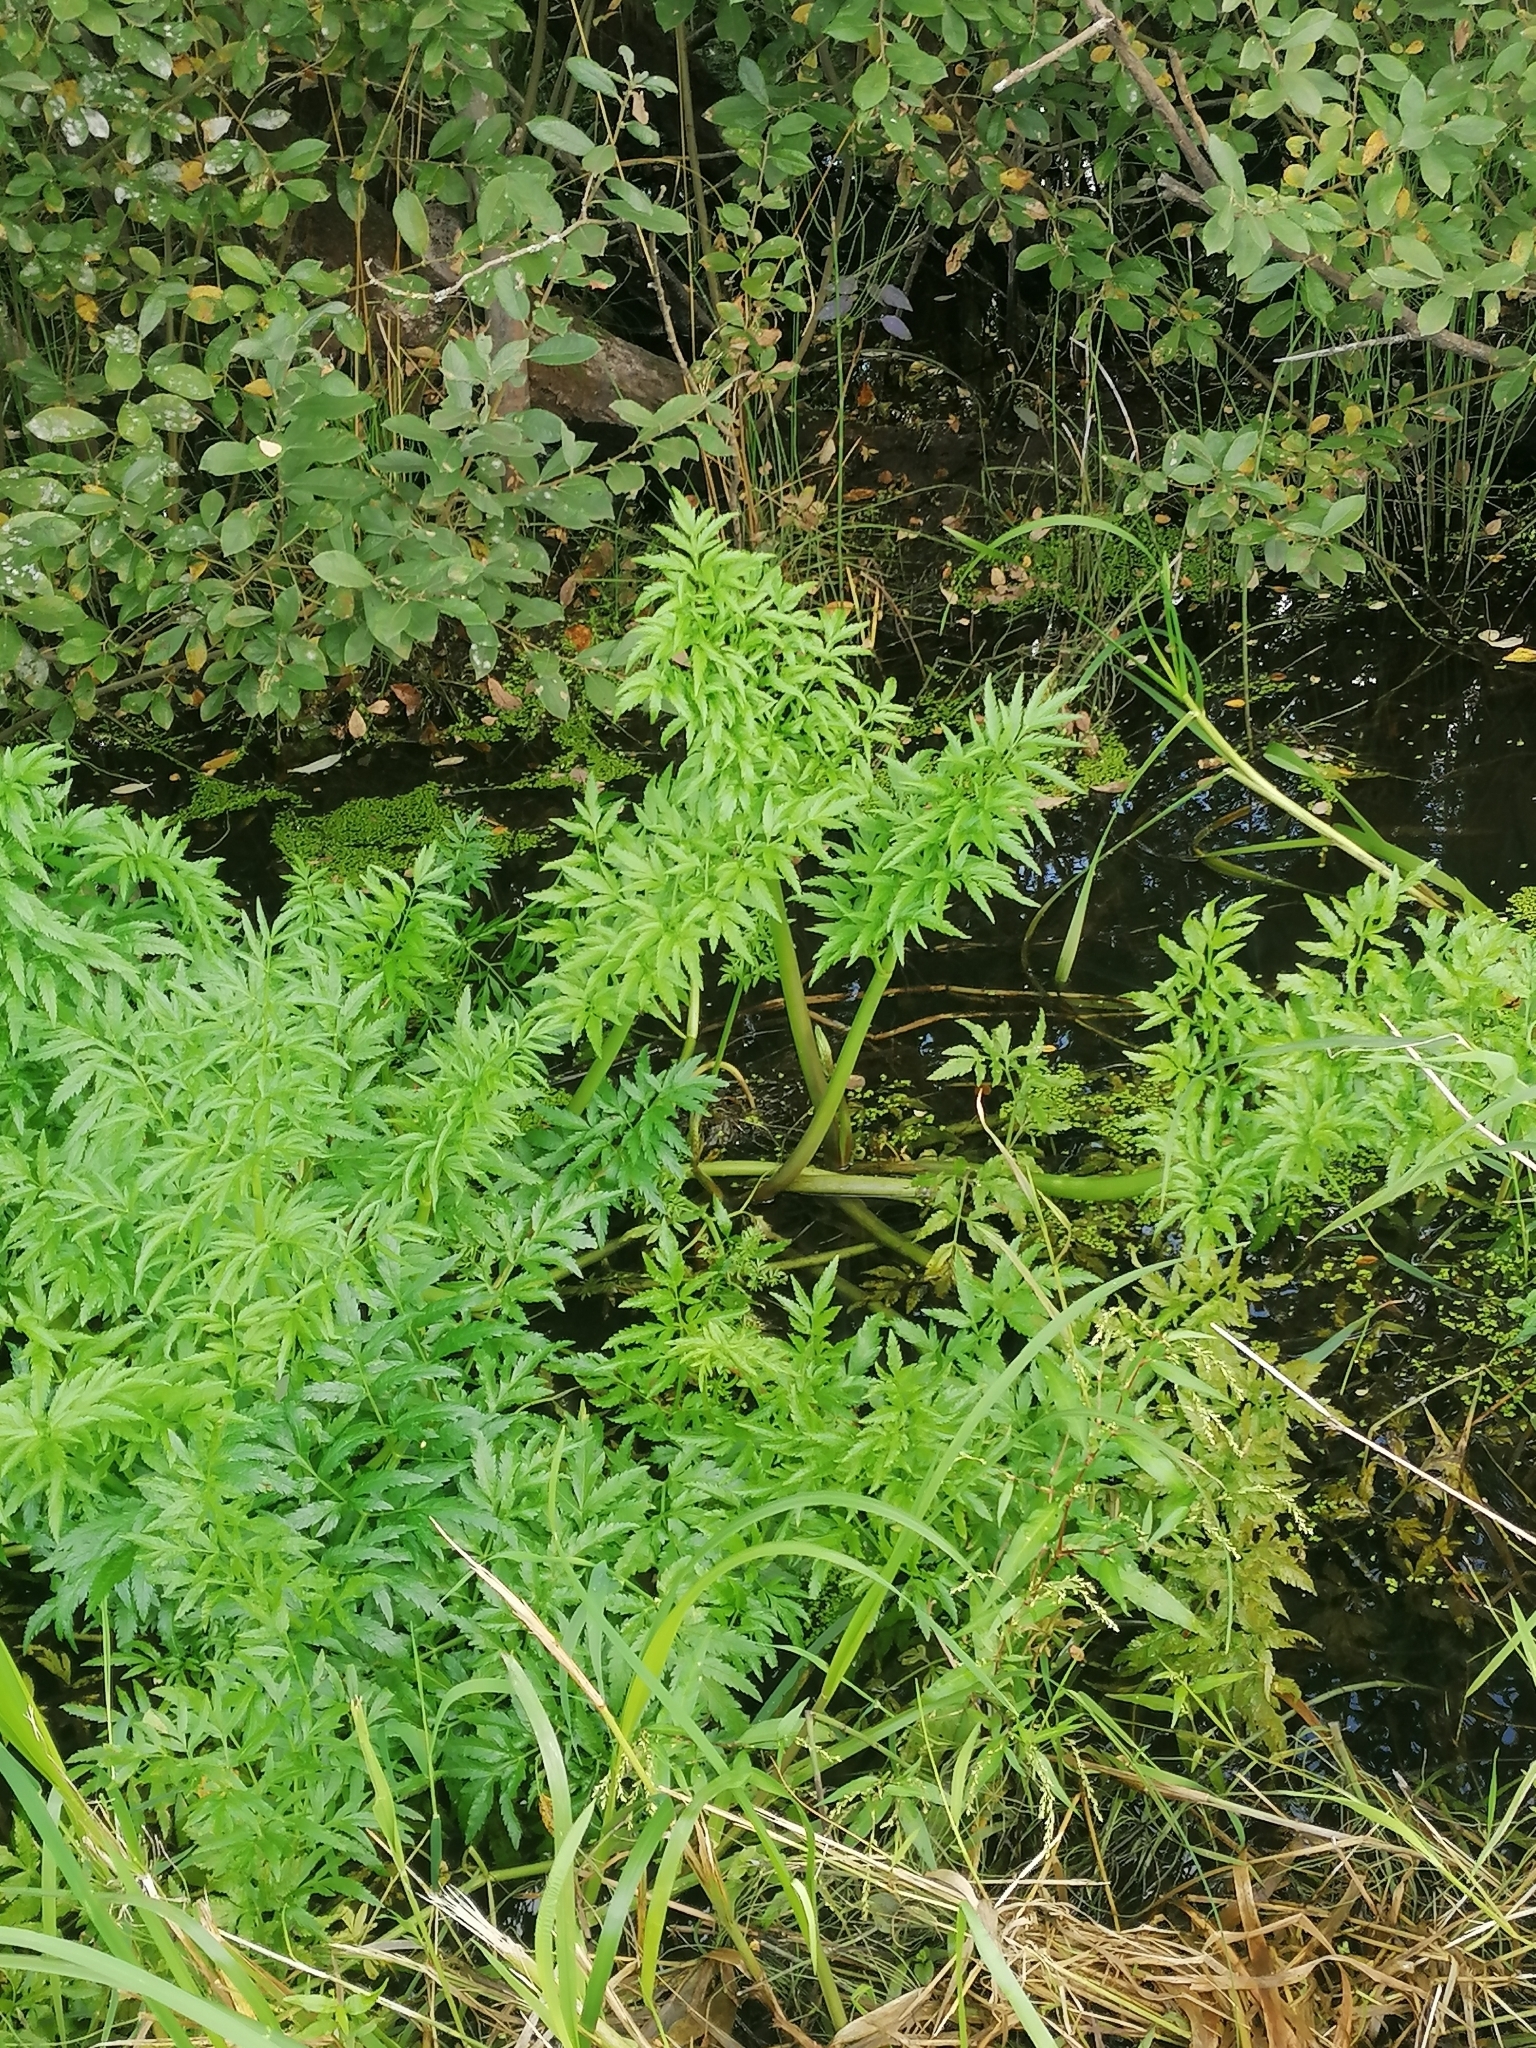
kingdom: Plantae
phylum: Tracheophyta
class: Magnoliopsida
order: Apiales
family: Apiaceae
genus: Cicuta
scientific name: Cicuta virosa
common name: Cowbane
